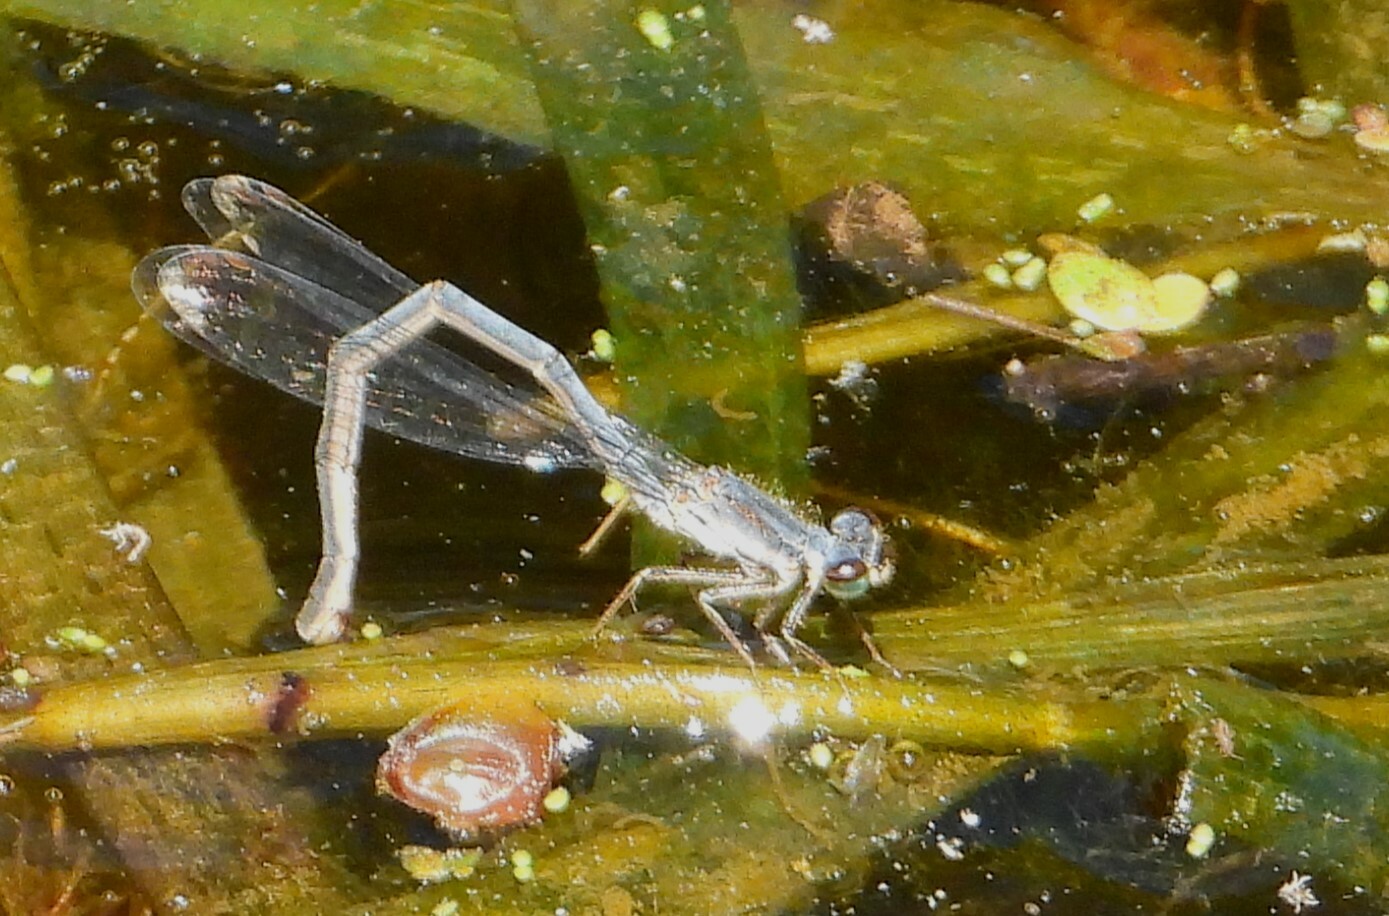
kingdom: Animalia
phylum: Arthropoda
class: Insecta
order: Odonata
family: Coenagrionidae
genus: Ischnura
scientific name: Ischnura posita
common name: Fragile forktail
